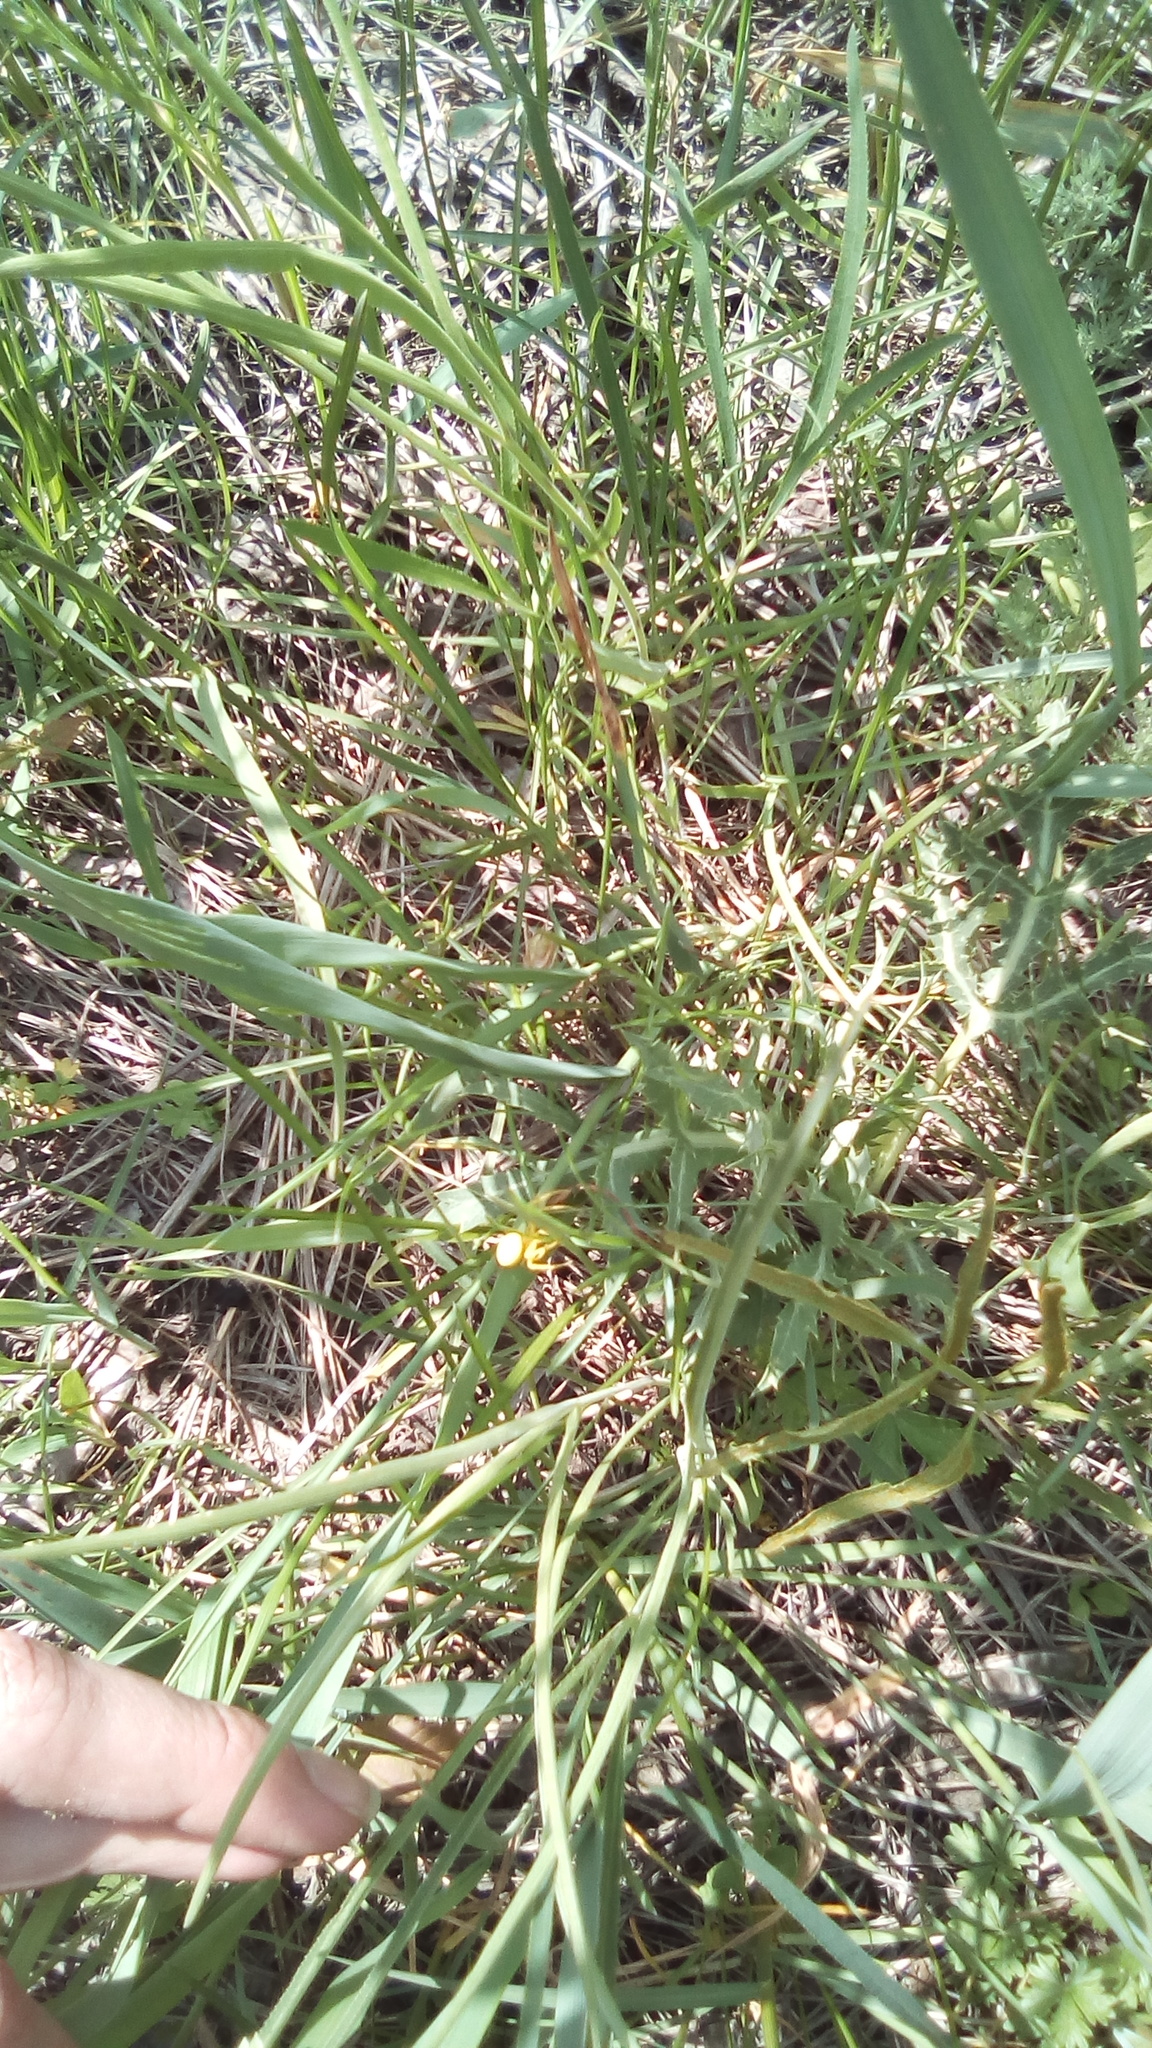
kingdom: Plantae
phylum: Tracheophyta
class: Magnoliopsida
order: Apiales
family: Apiaceae
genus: Falcaria
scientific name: Falcaria vulgaris
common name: Longleaf
